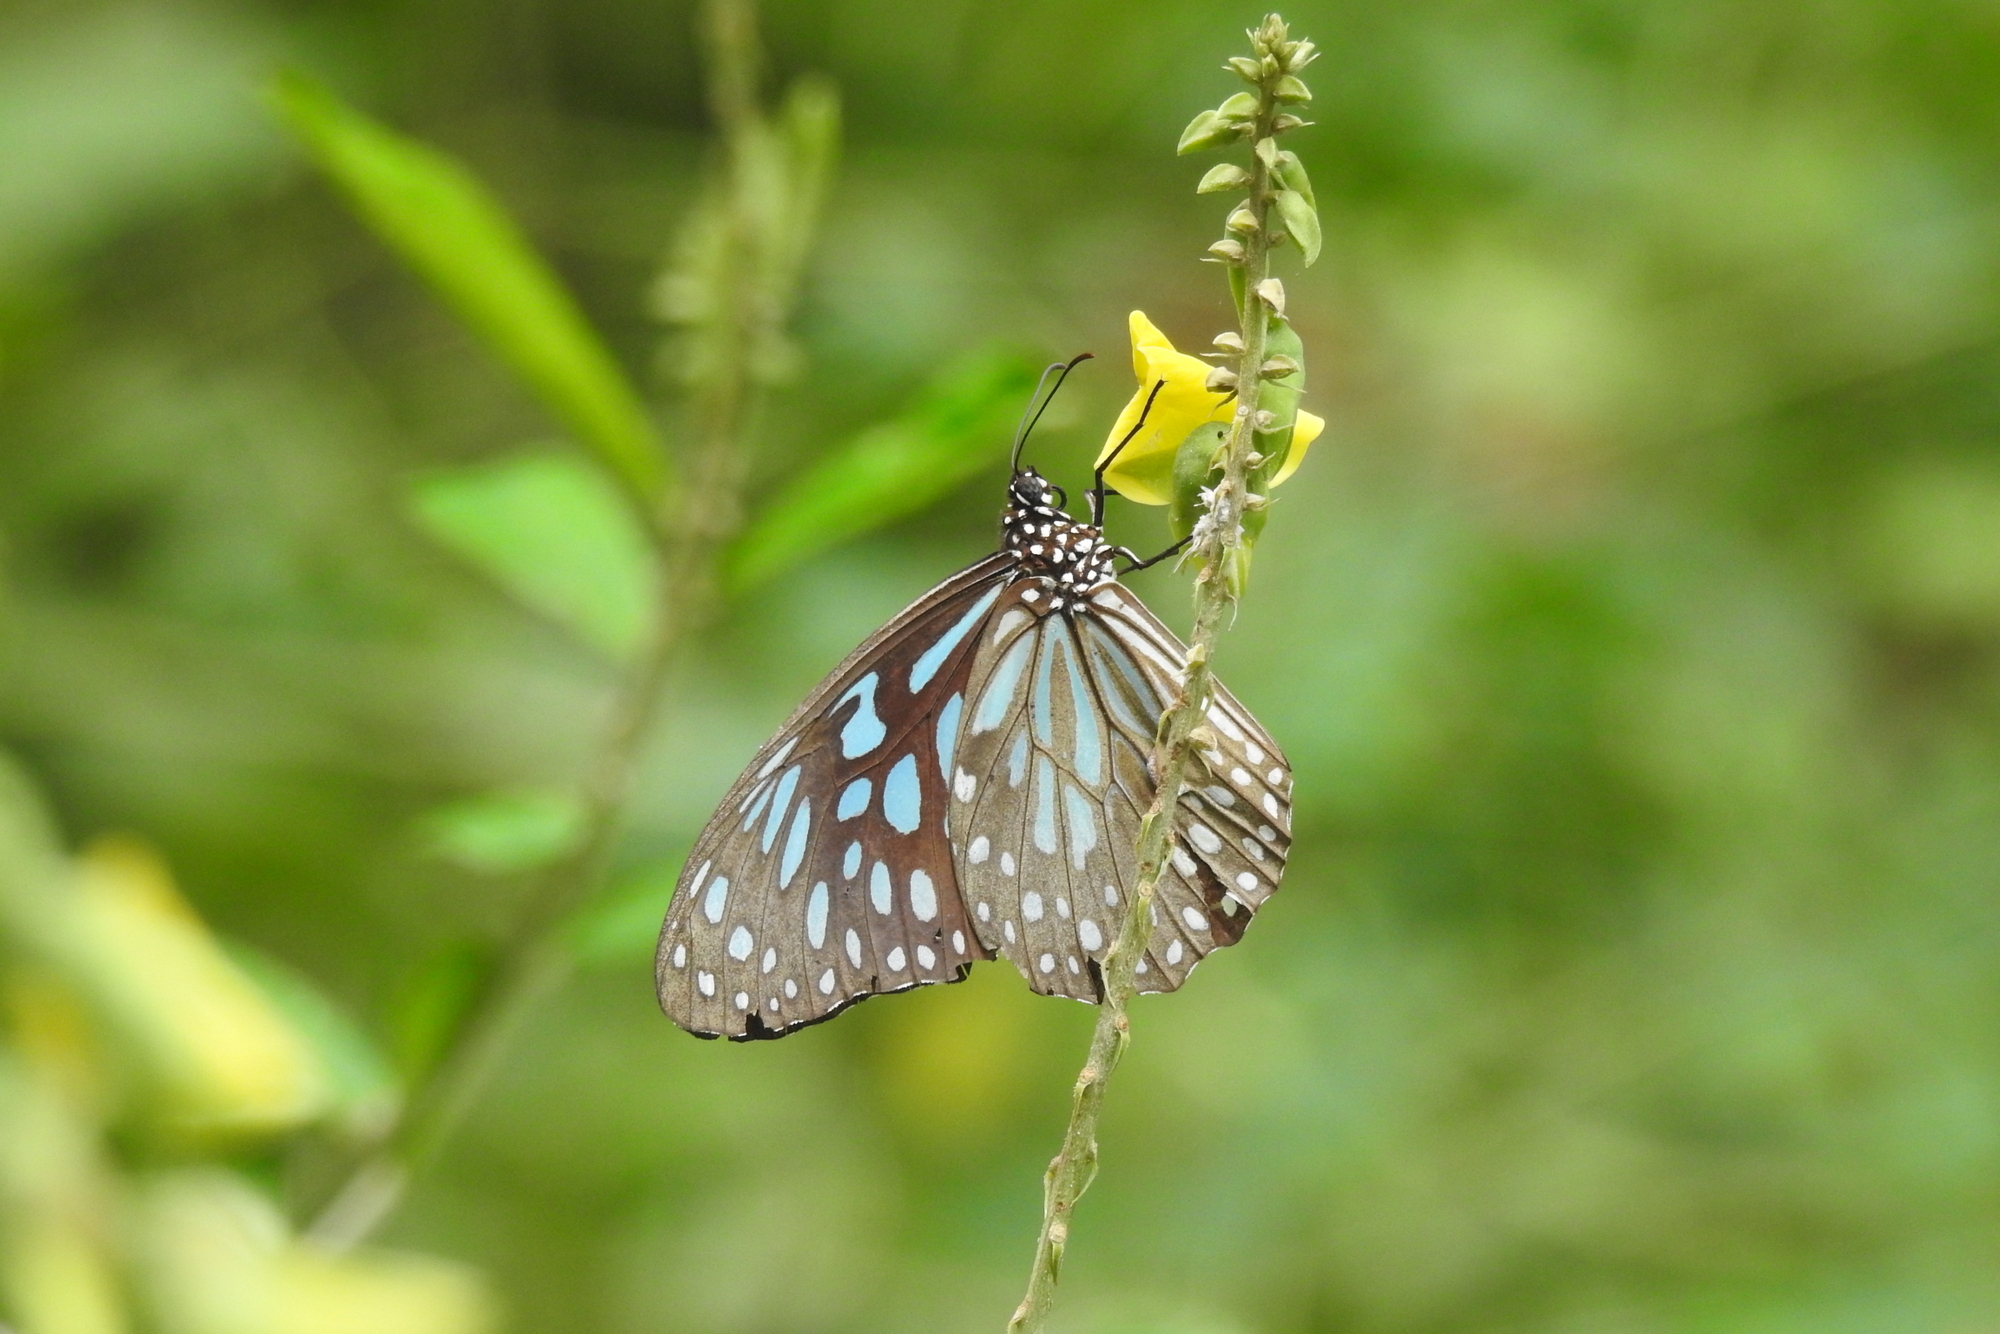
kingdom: Animalia
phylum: Arthropoda
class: Insecta
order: Lepidoptera
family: Nymphalidae
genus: Tirumala
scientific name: Tirumala septentrionis
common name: Dark blue tiger butterfly
